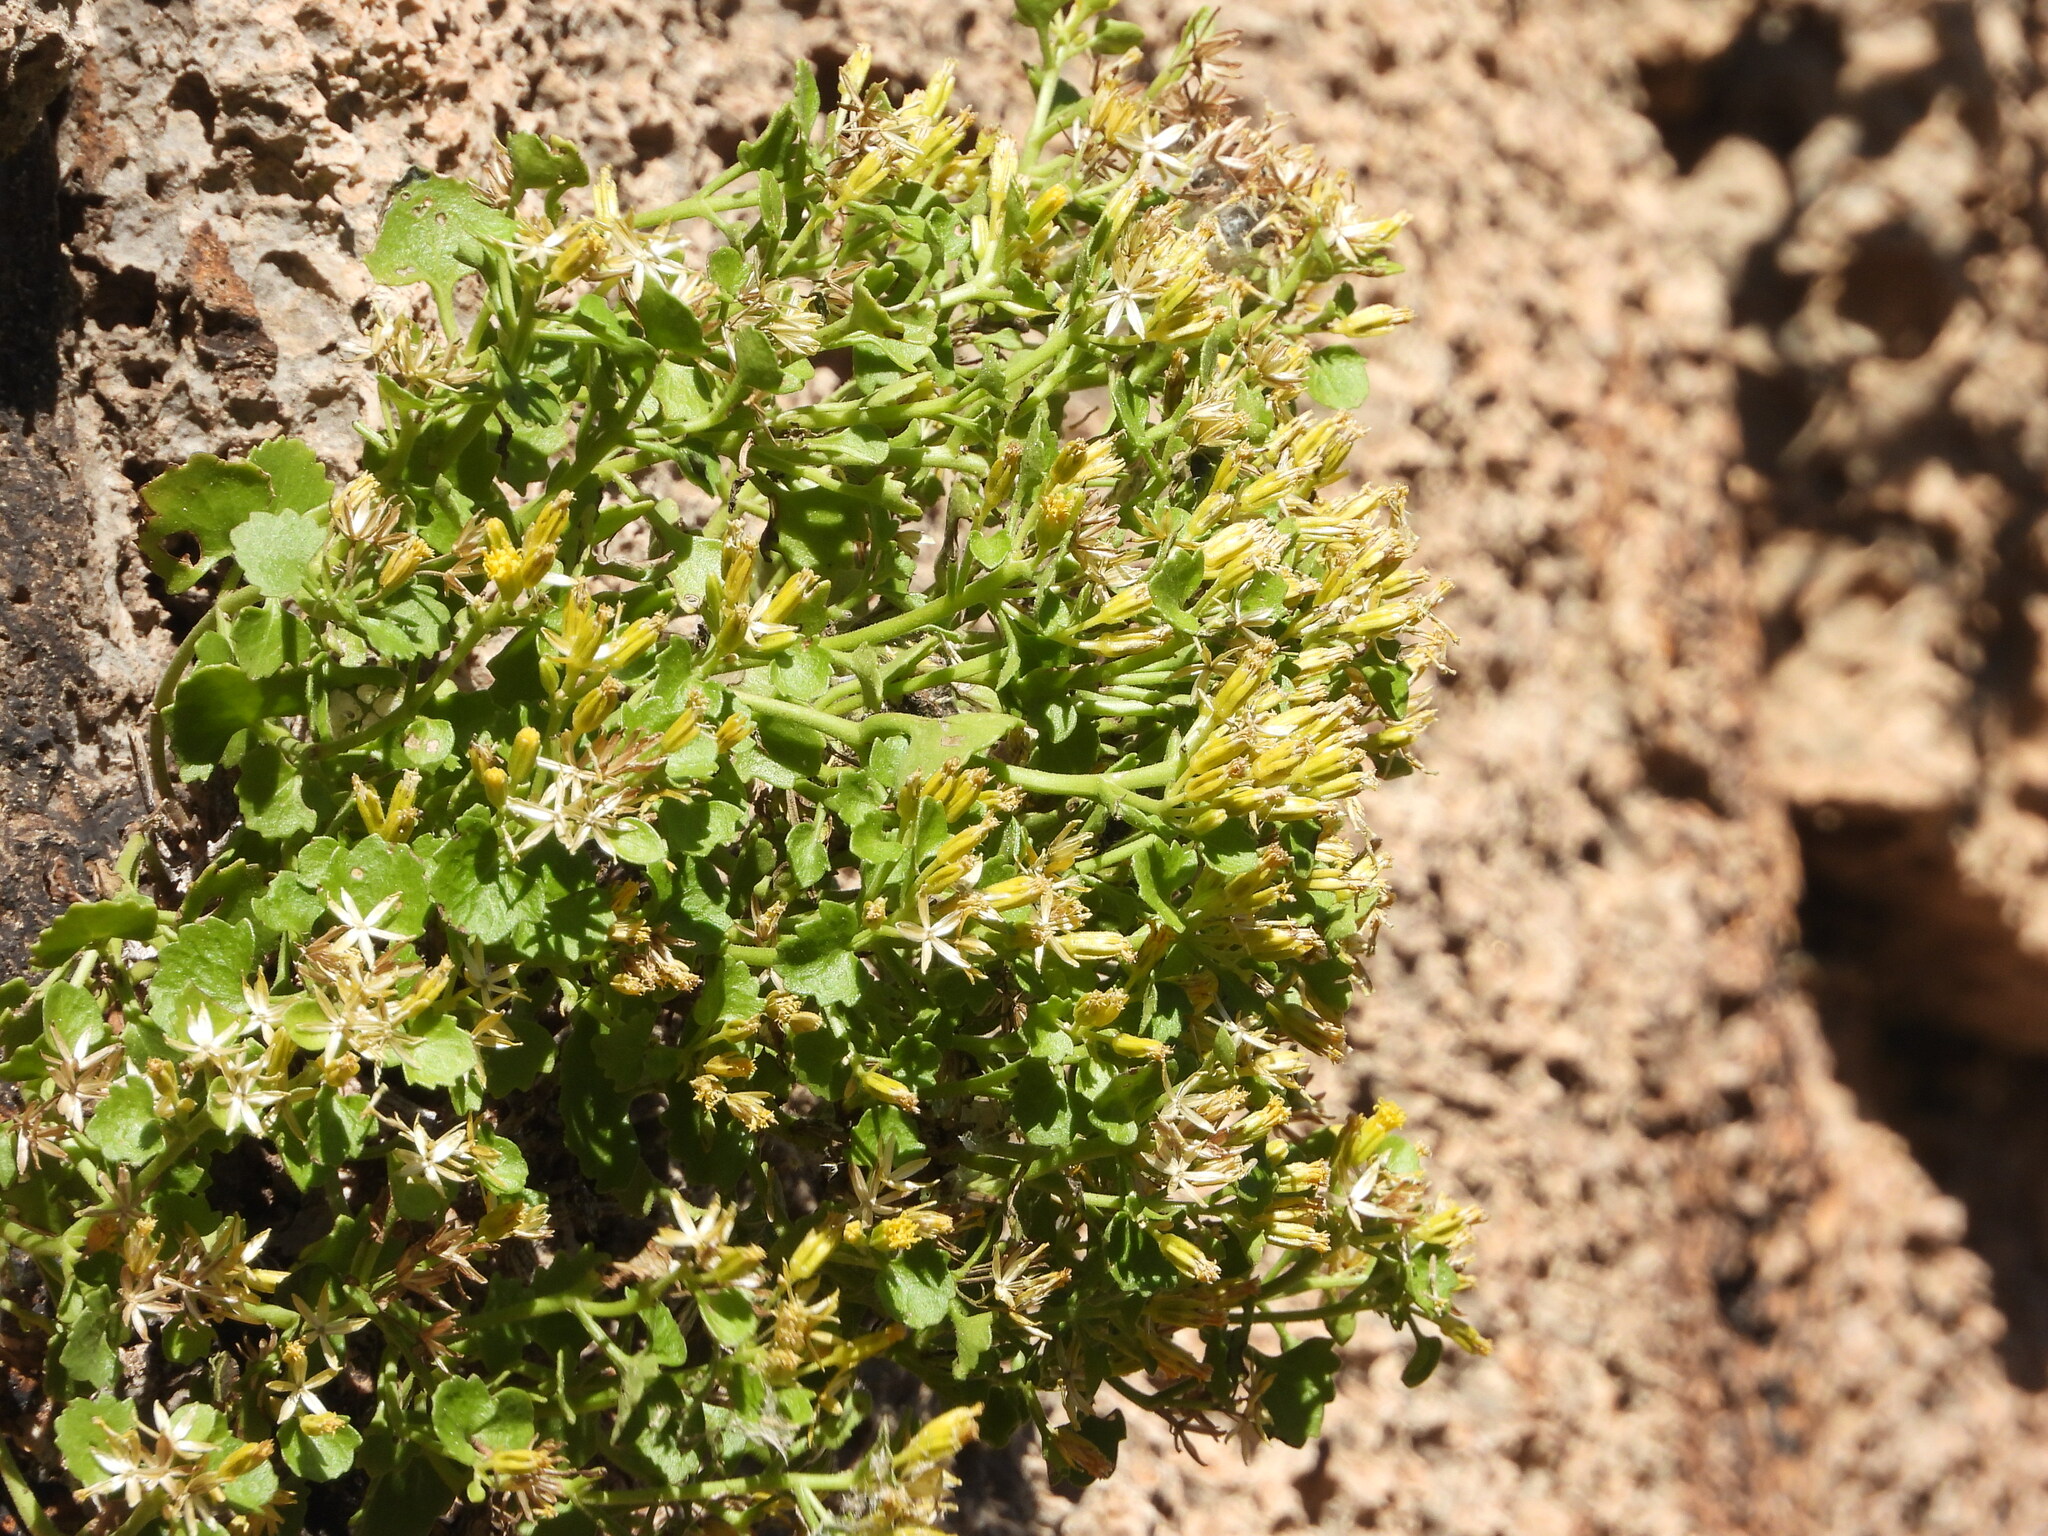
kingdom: Plantae
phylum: Tracheophyta
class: Magnoliopsida
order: Asterales
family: Asteraceae
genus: Laphamia
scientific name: Laphamia quinqueflora
